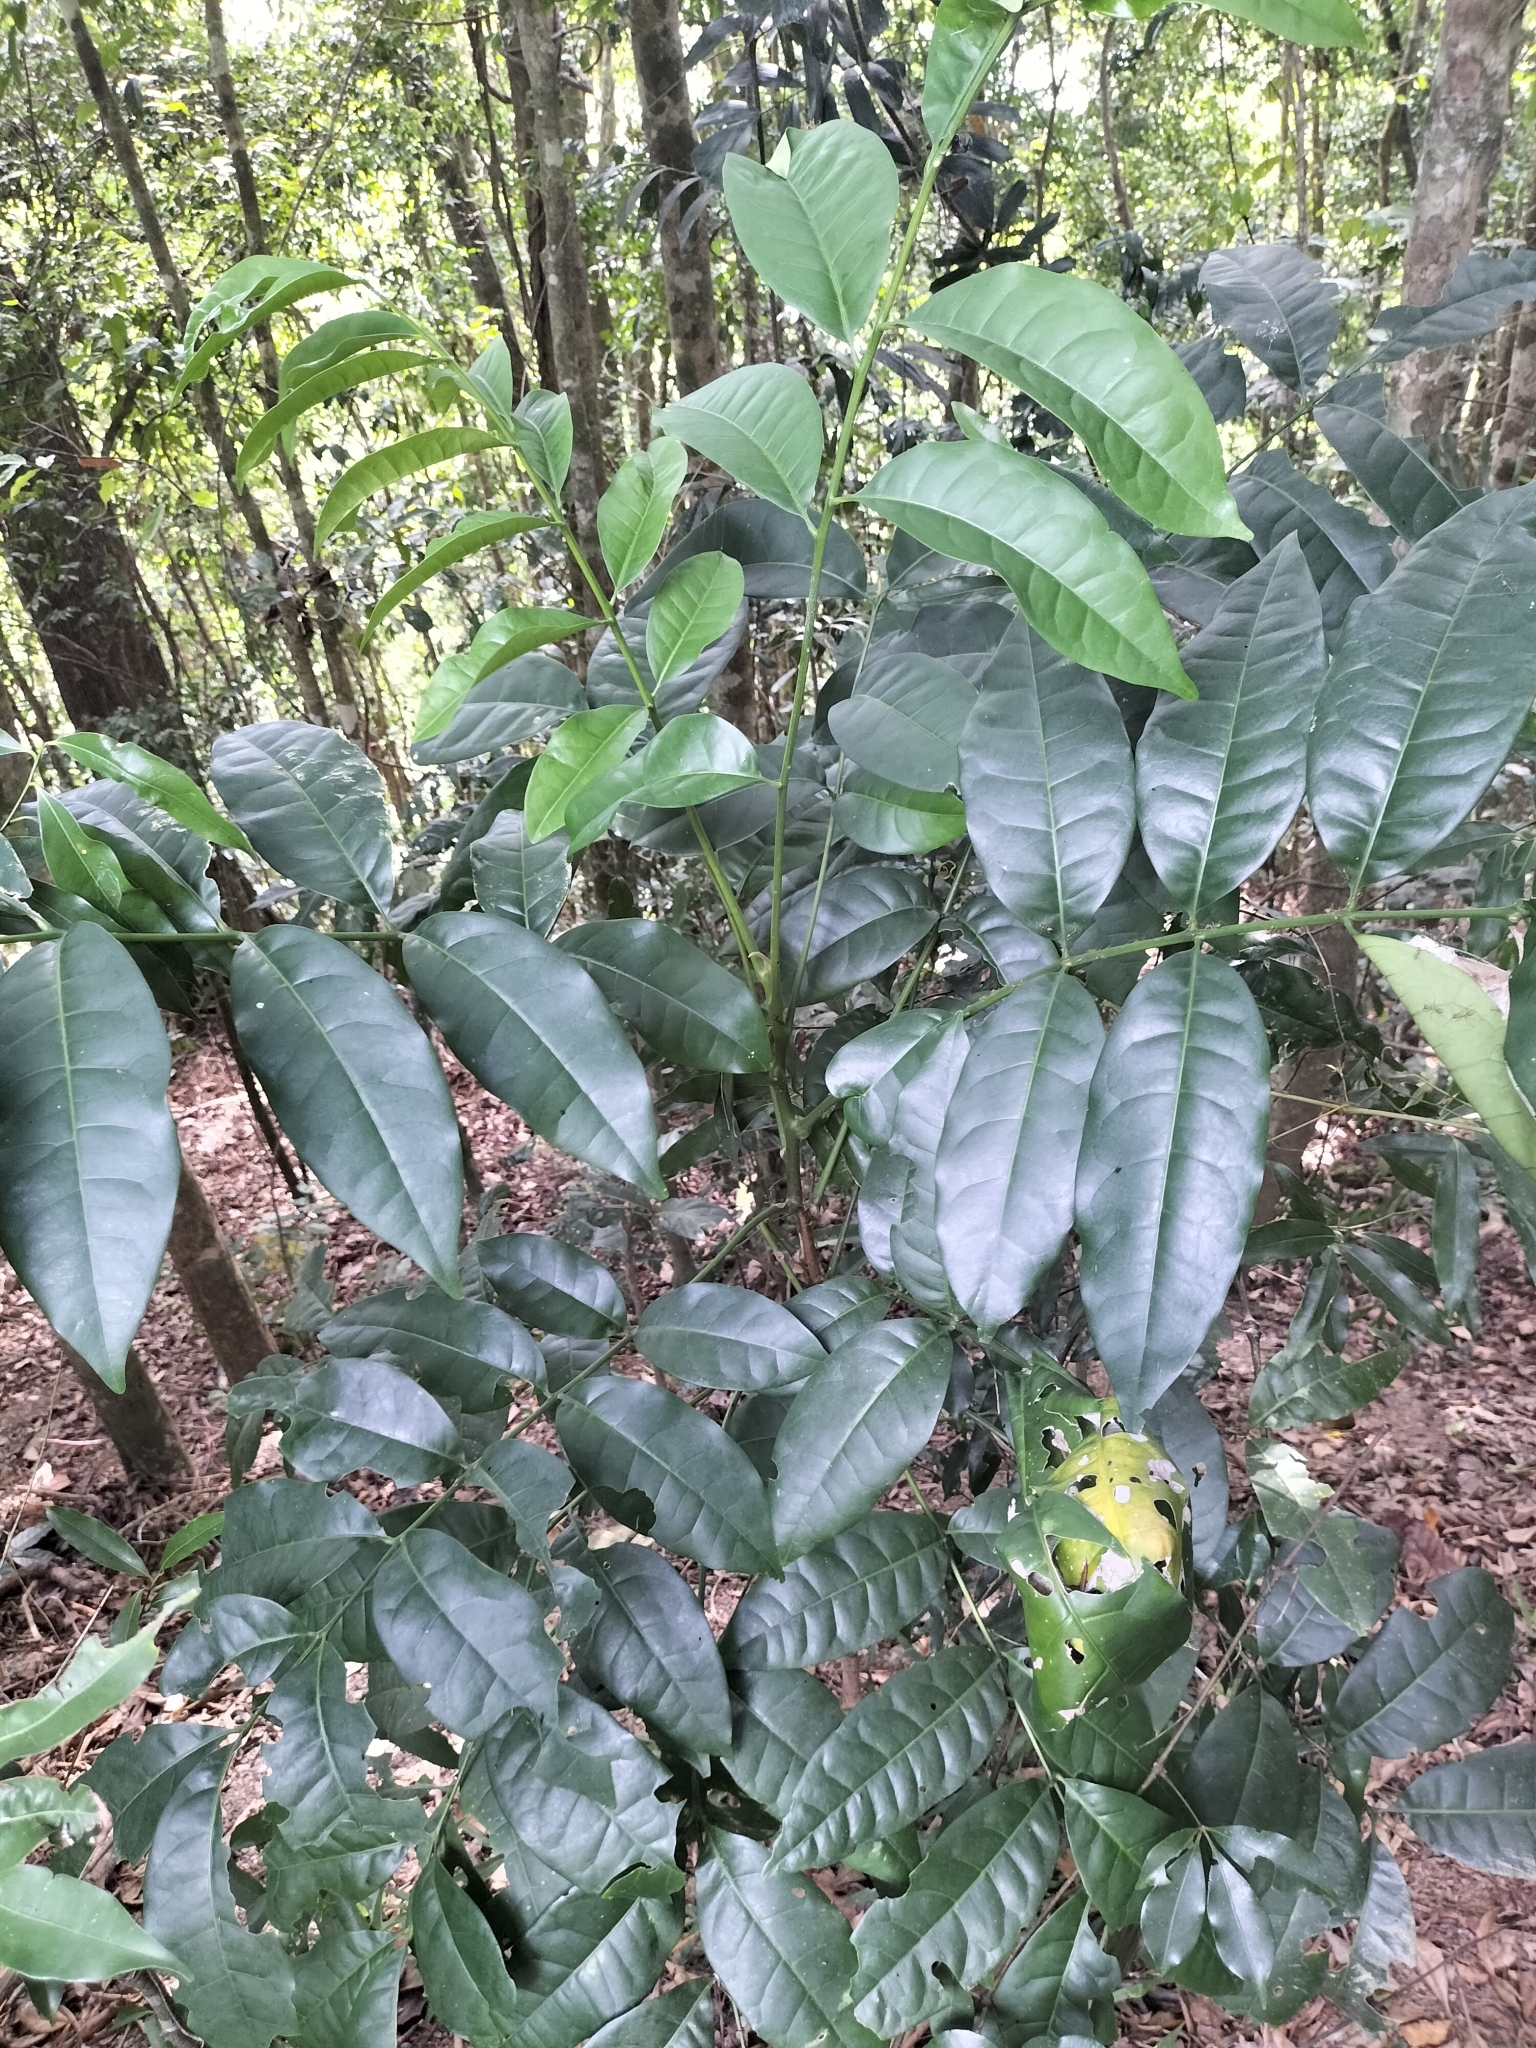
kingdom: Plantae
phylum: Tracheophyta
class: Magnoliopsida
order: Sapindales
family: Rutaceae
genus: Flindersia
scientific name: Flindersia brayleyana
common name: Queensland maple
